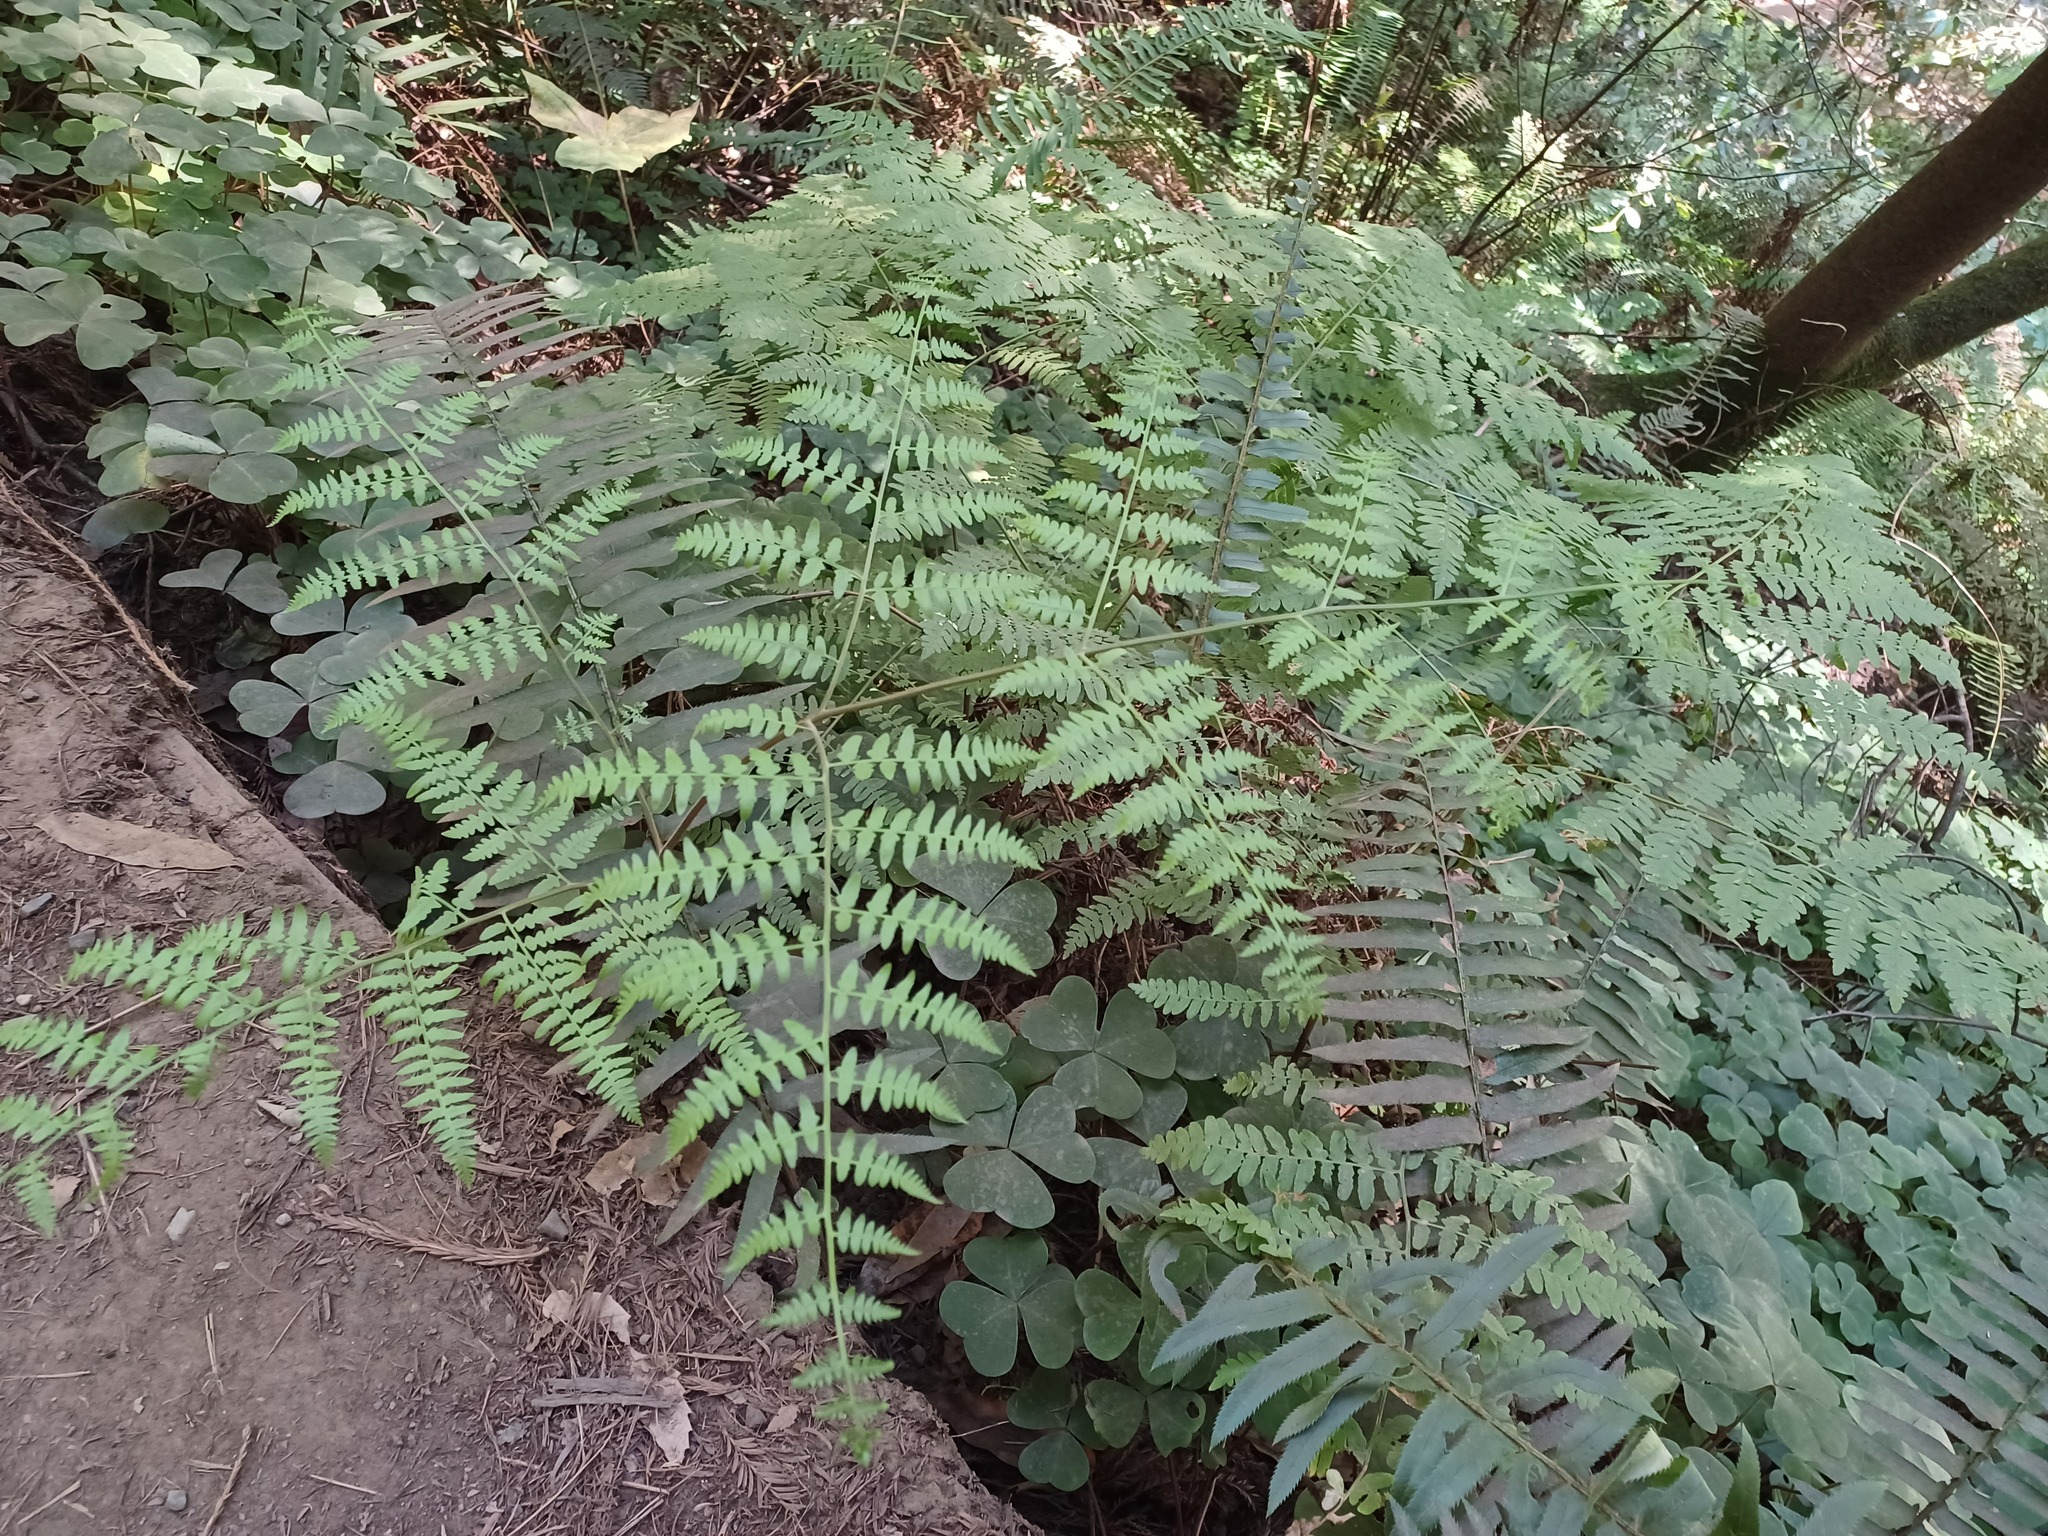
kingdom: Plantae
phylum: Tracheophyta
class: Polypodiopsida
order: Polypodiales
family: Dennstaedtiaceae
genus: Pteridium
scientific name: Pteridium aquilinum
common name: Bracken
